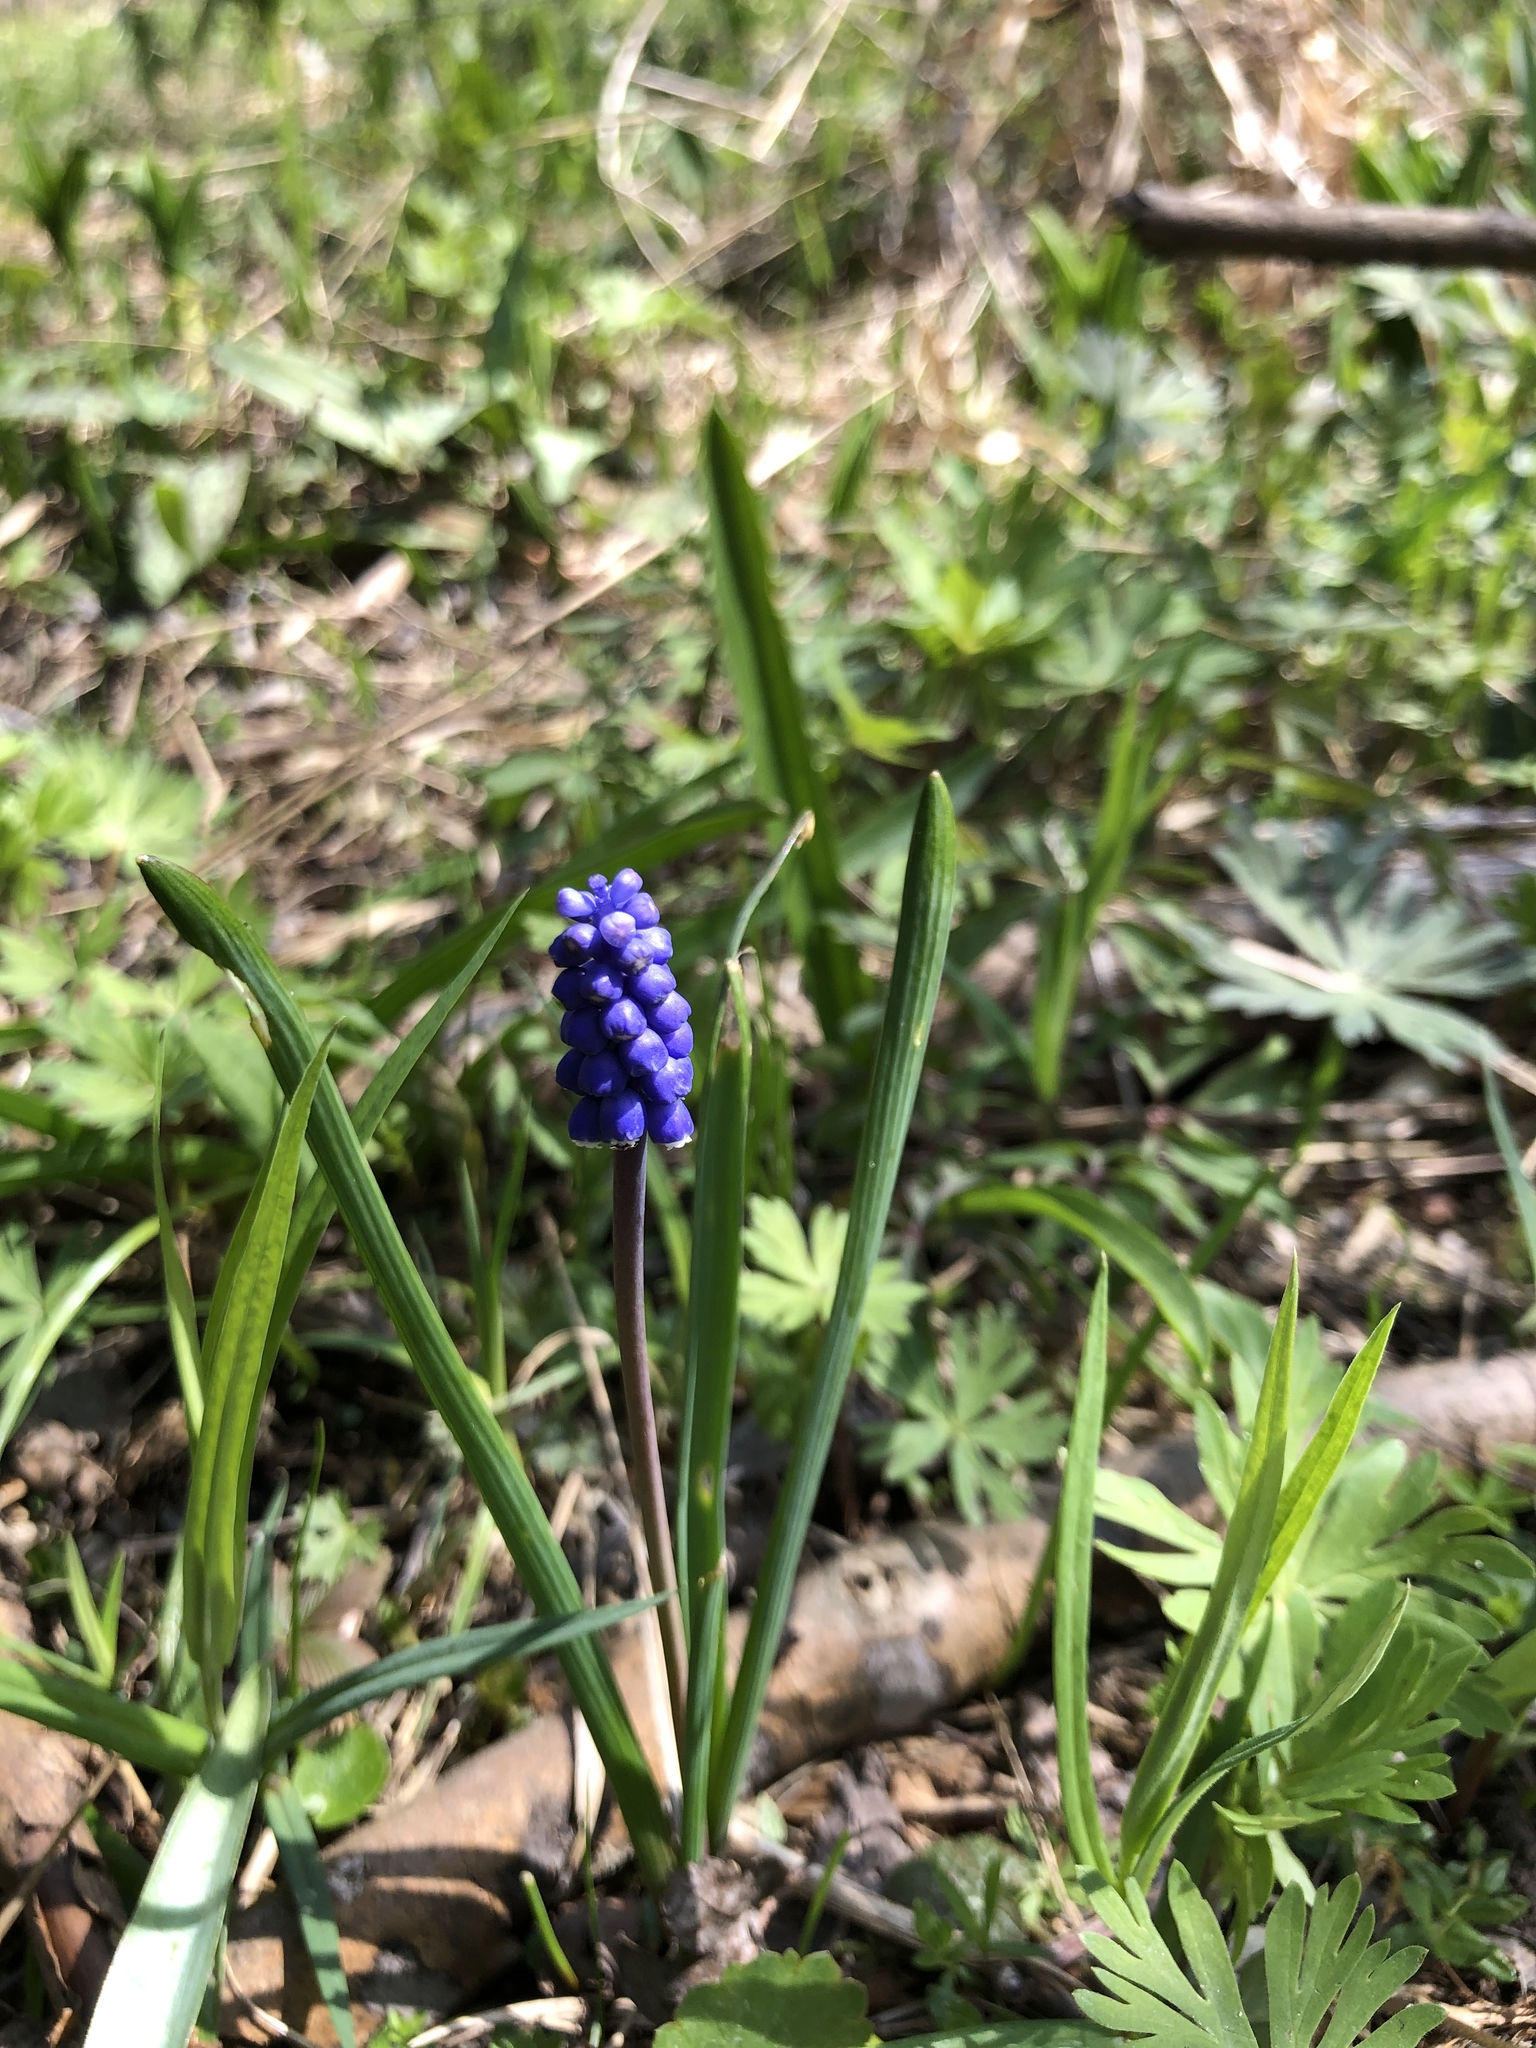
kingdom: Plantae
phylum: Tracheophyta
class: Liliopsida
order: Asparagales
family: Asparagaceae
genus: Muscari
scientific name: Muscari botryoides
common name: Compact grape-hyacinth
